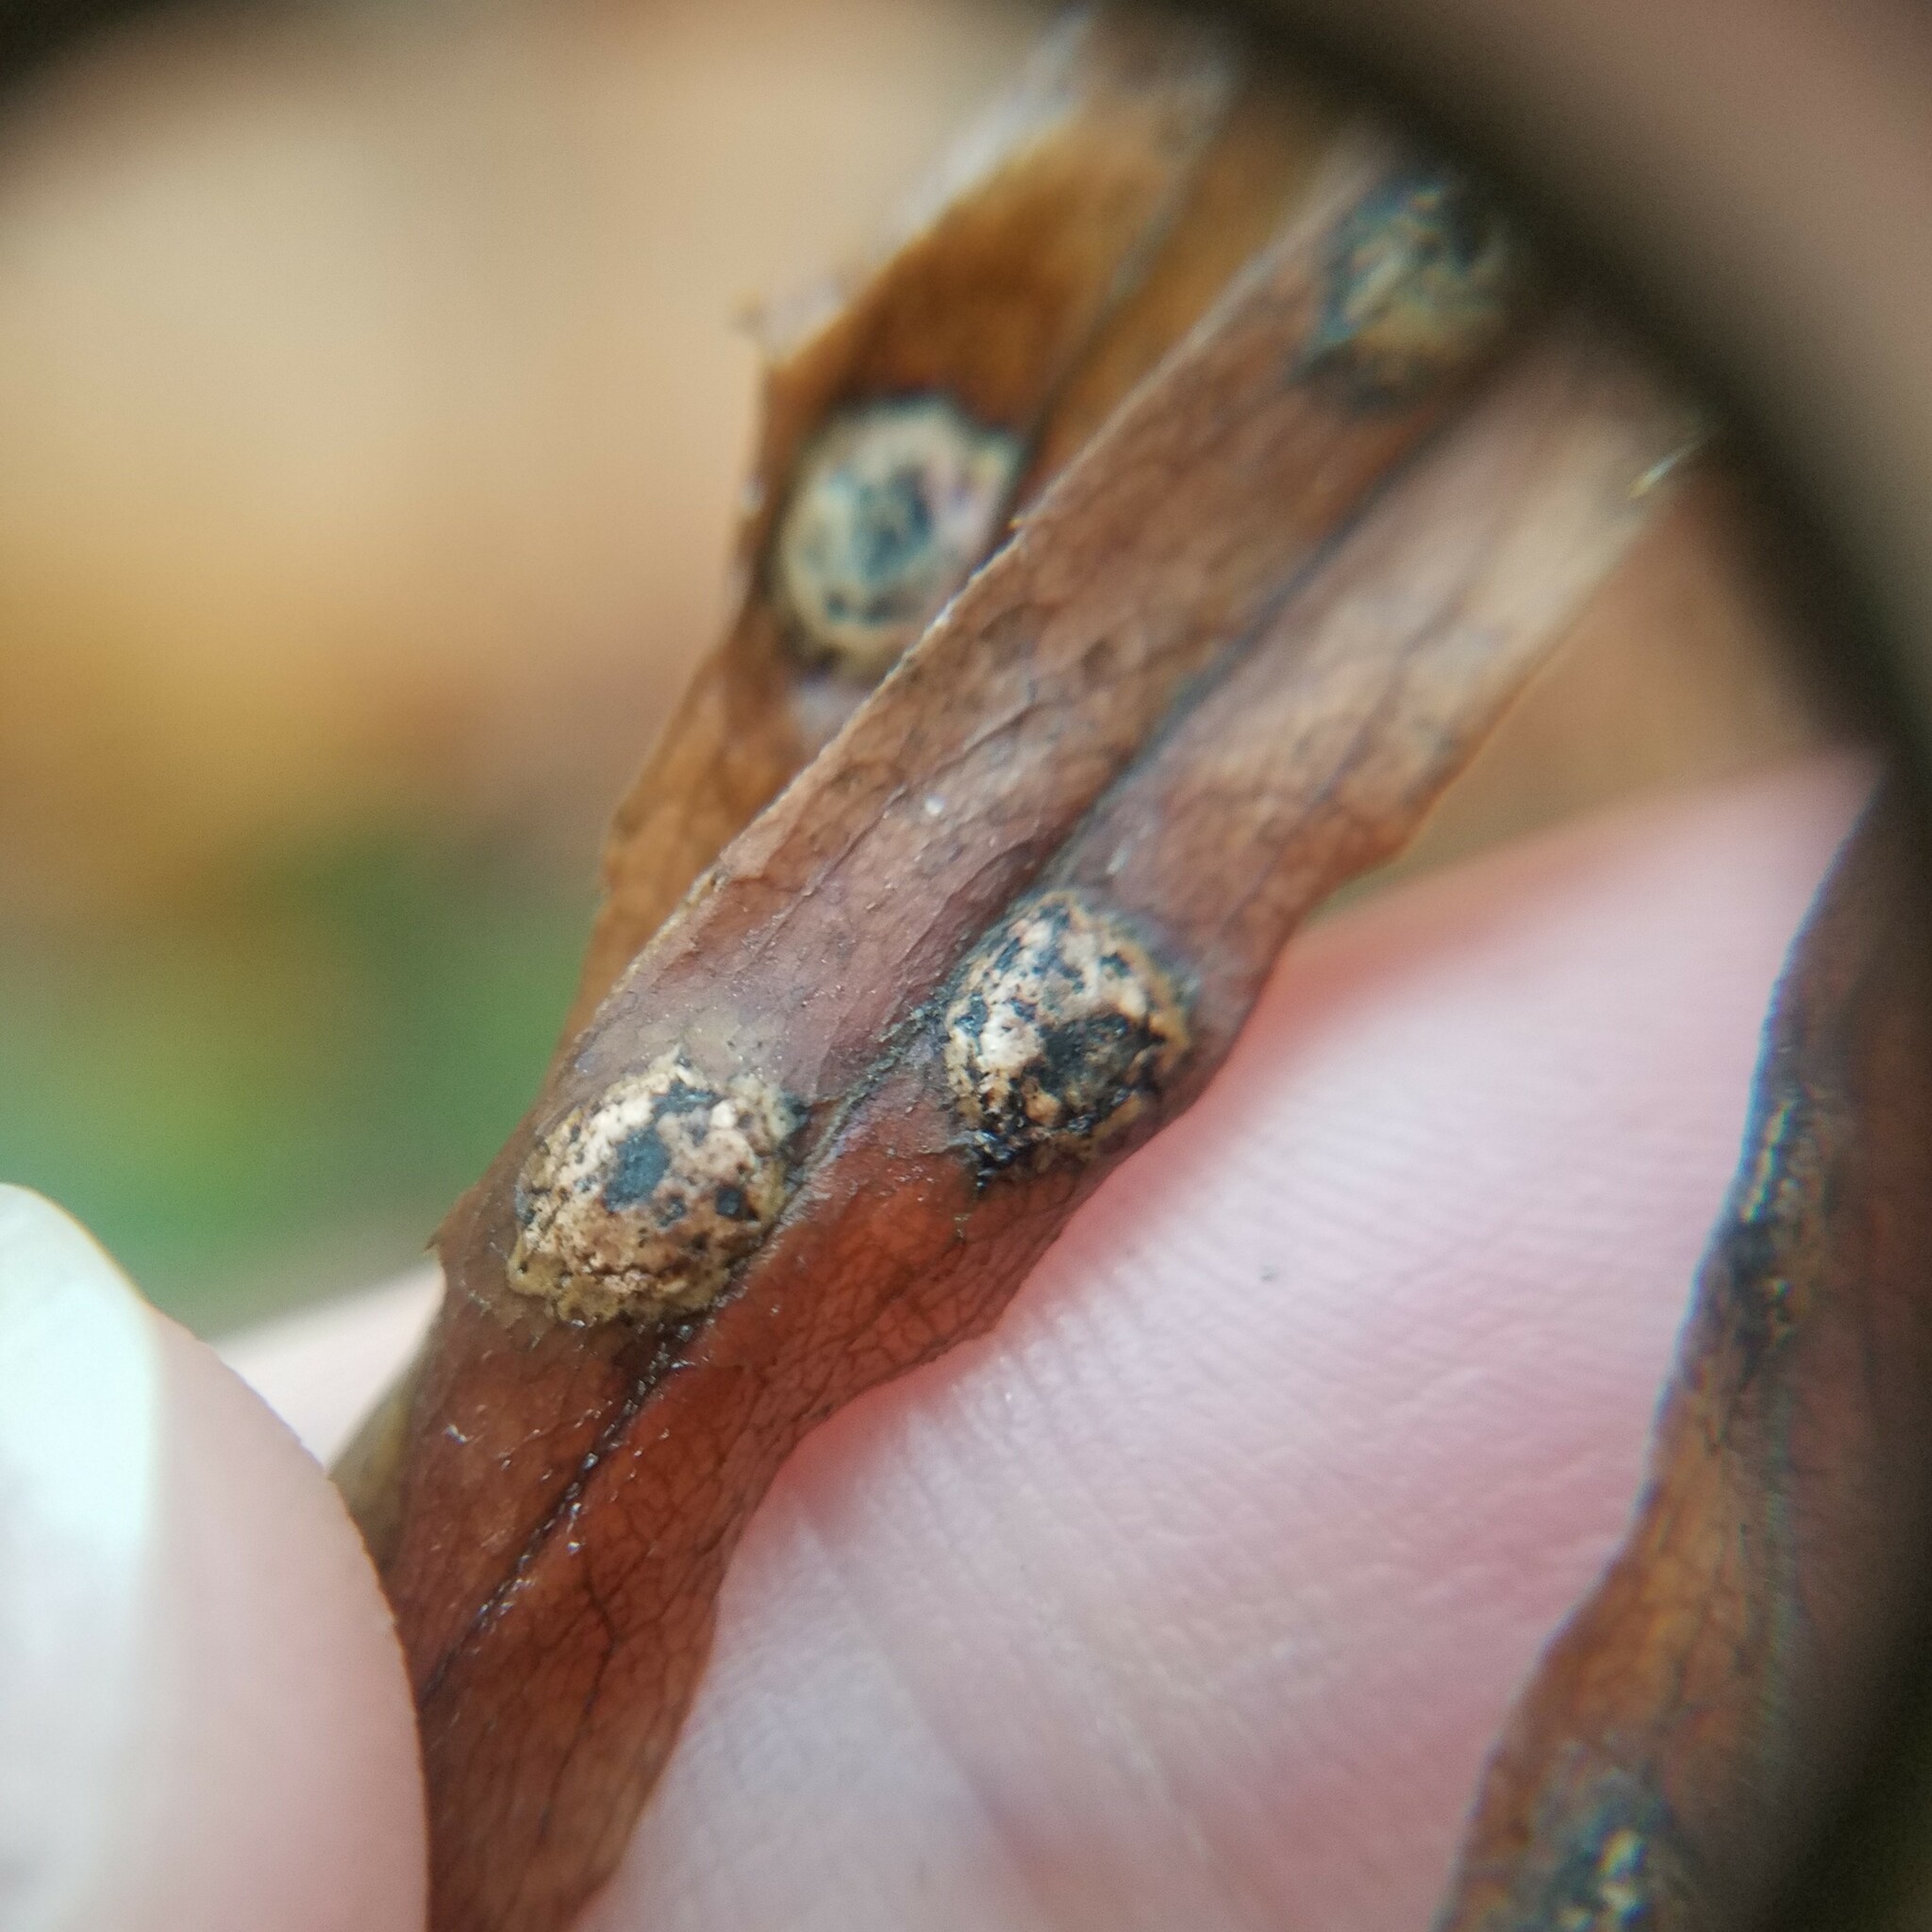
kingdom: Animalia
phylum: Arthropoda
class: Insecta
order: Diptera
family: Cecidomyiidae
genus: Asteromyia
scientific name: Asteromyia carbonifera
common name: Carbonifera goldenrod gall midge
